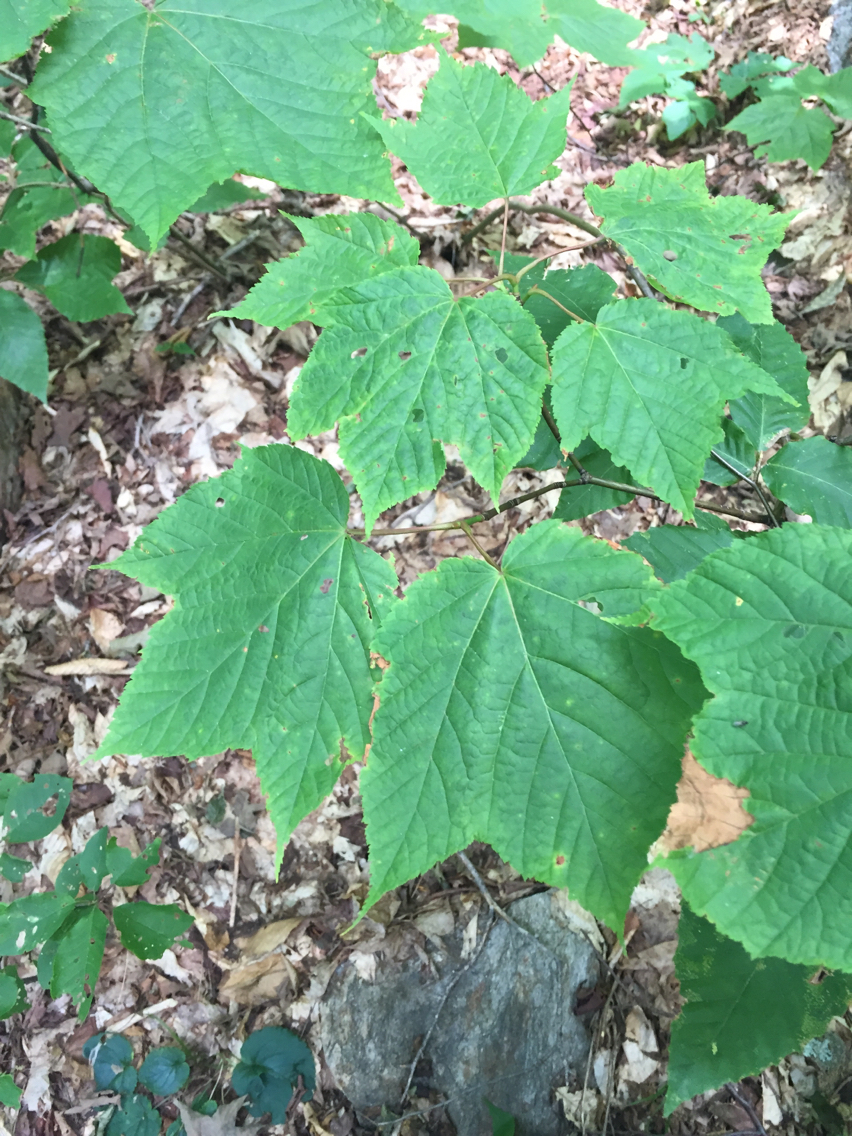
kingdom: Plantae
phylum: Tracheophyta
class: Magnoliopsida
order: Sapindales
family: Sapindaceae
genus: Acer
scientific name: Acer pensylvanicum
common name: Moosewood
